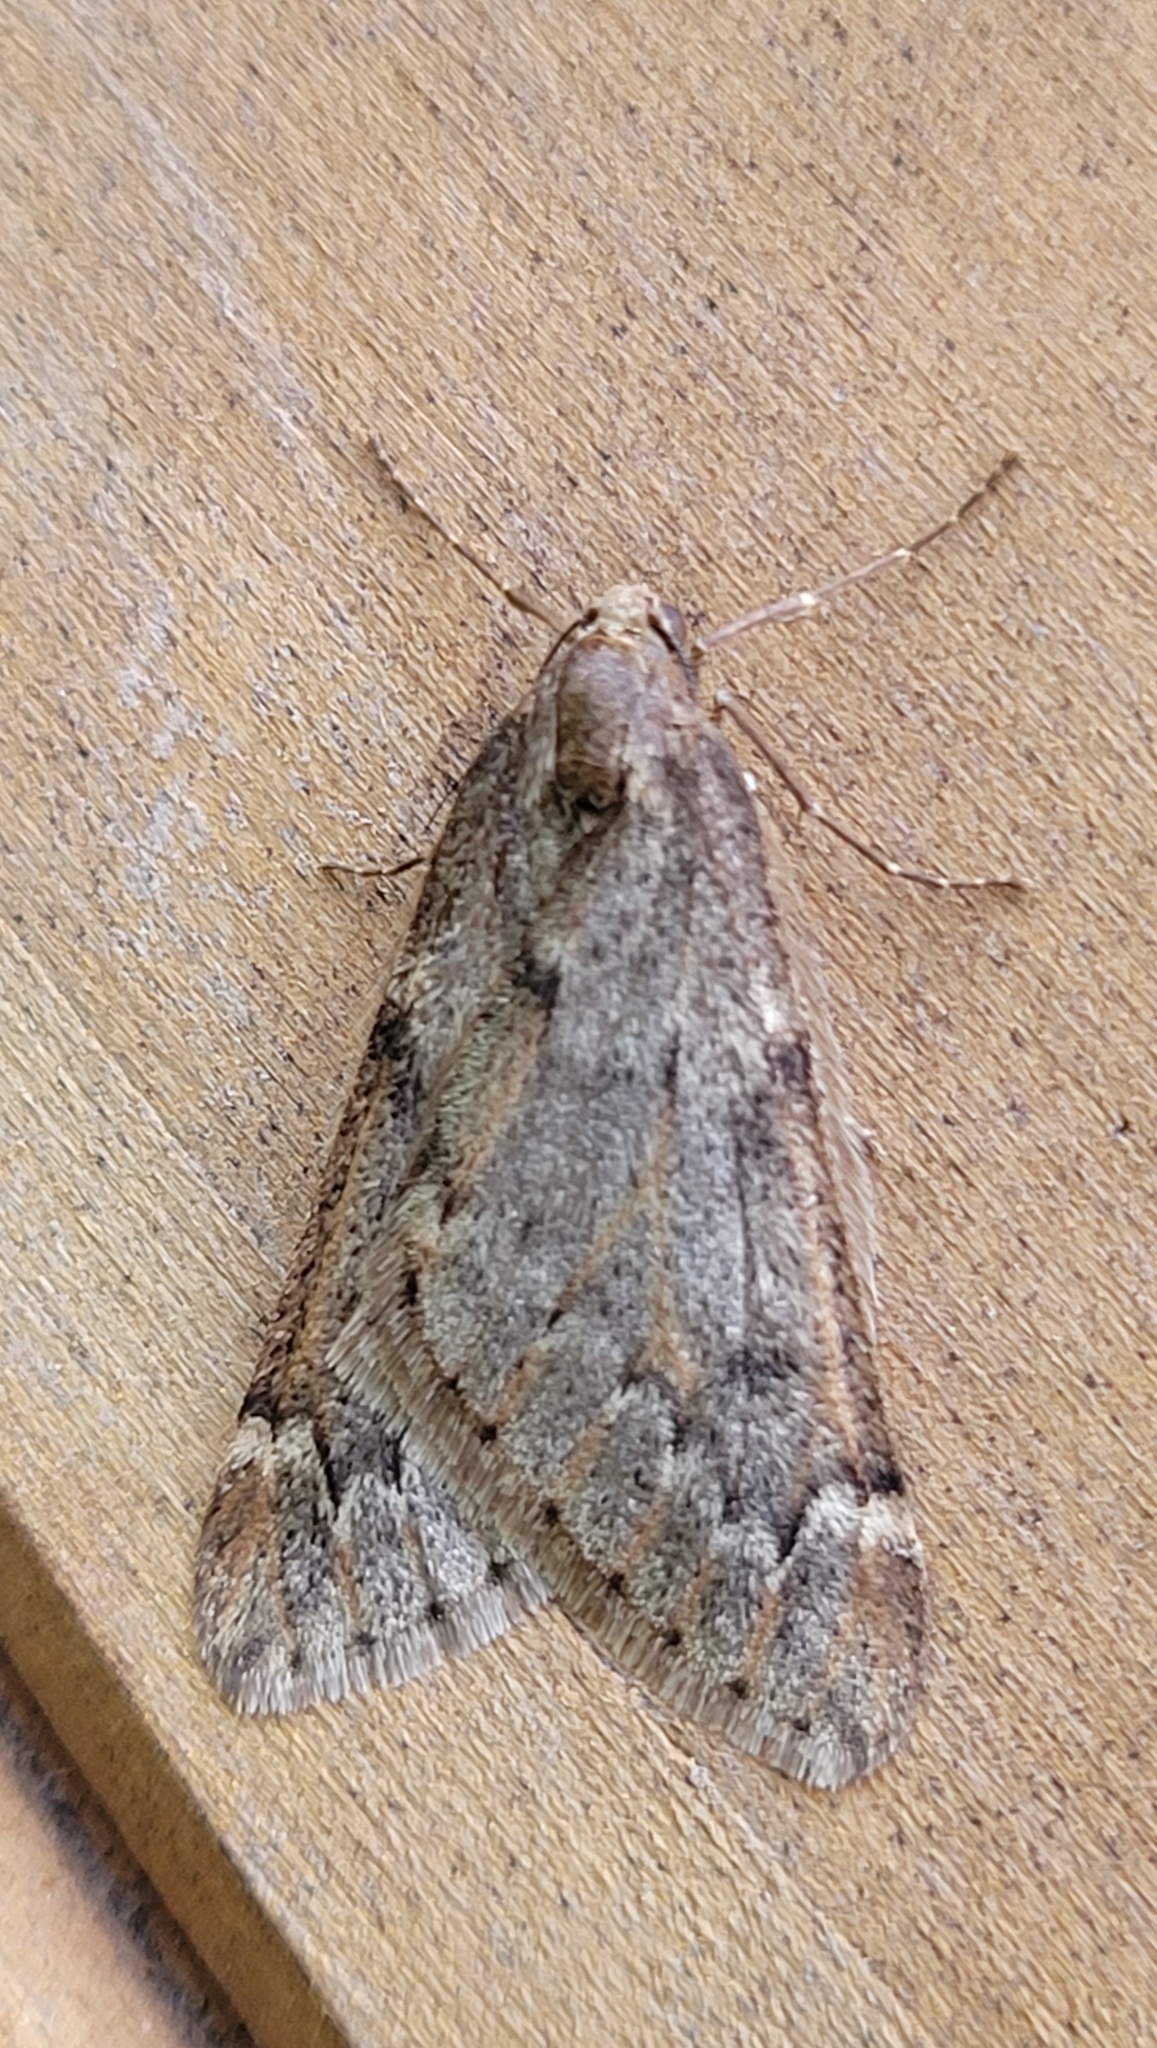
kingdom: Animalia
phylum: Arthropoda
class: Insecta
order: Lepidoptera
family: Geometridae
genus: Alsophila
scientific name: Alsophila aescularia
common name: March moth
